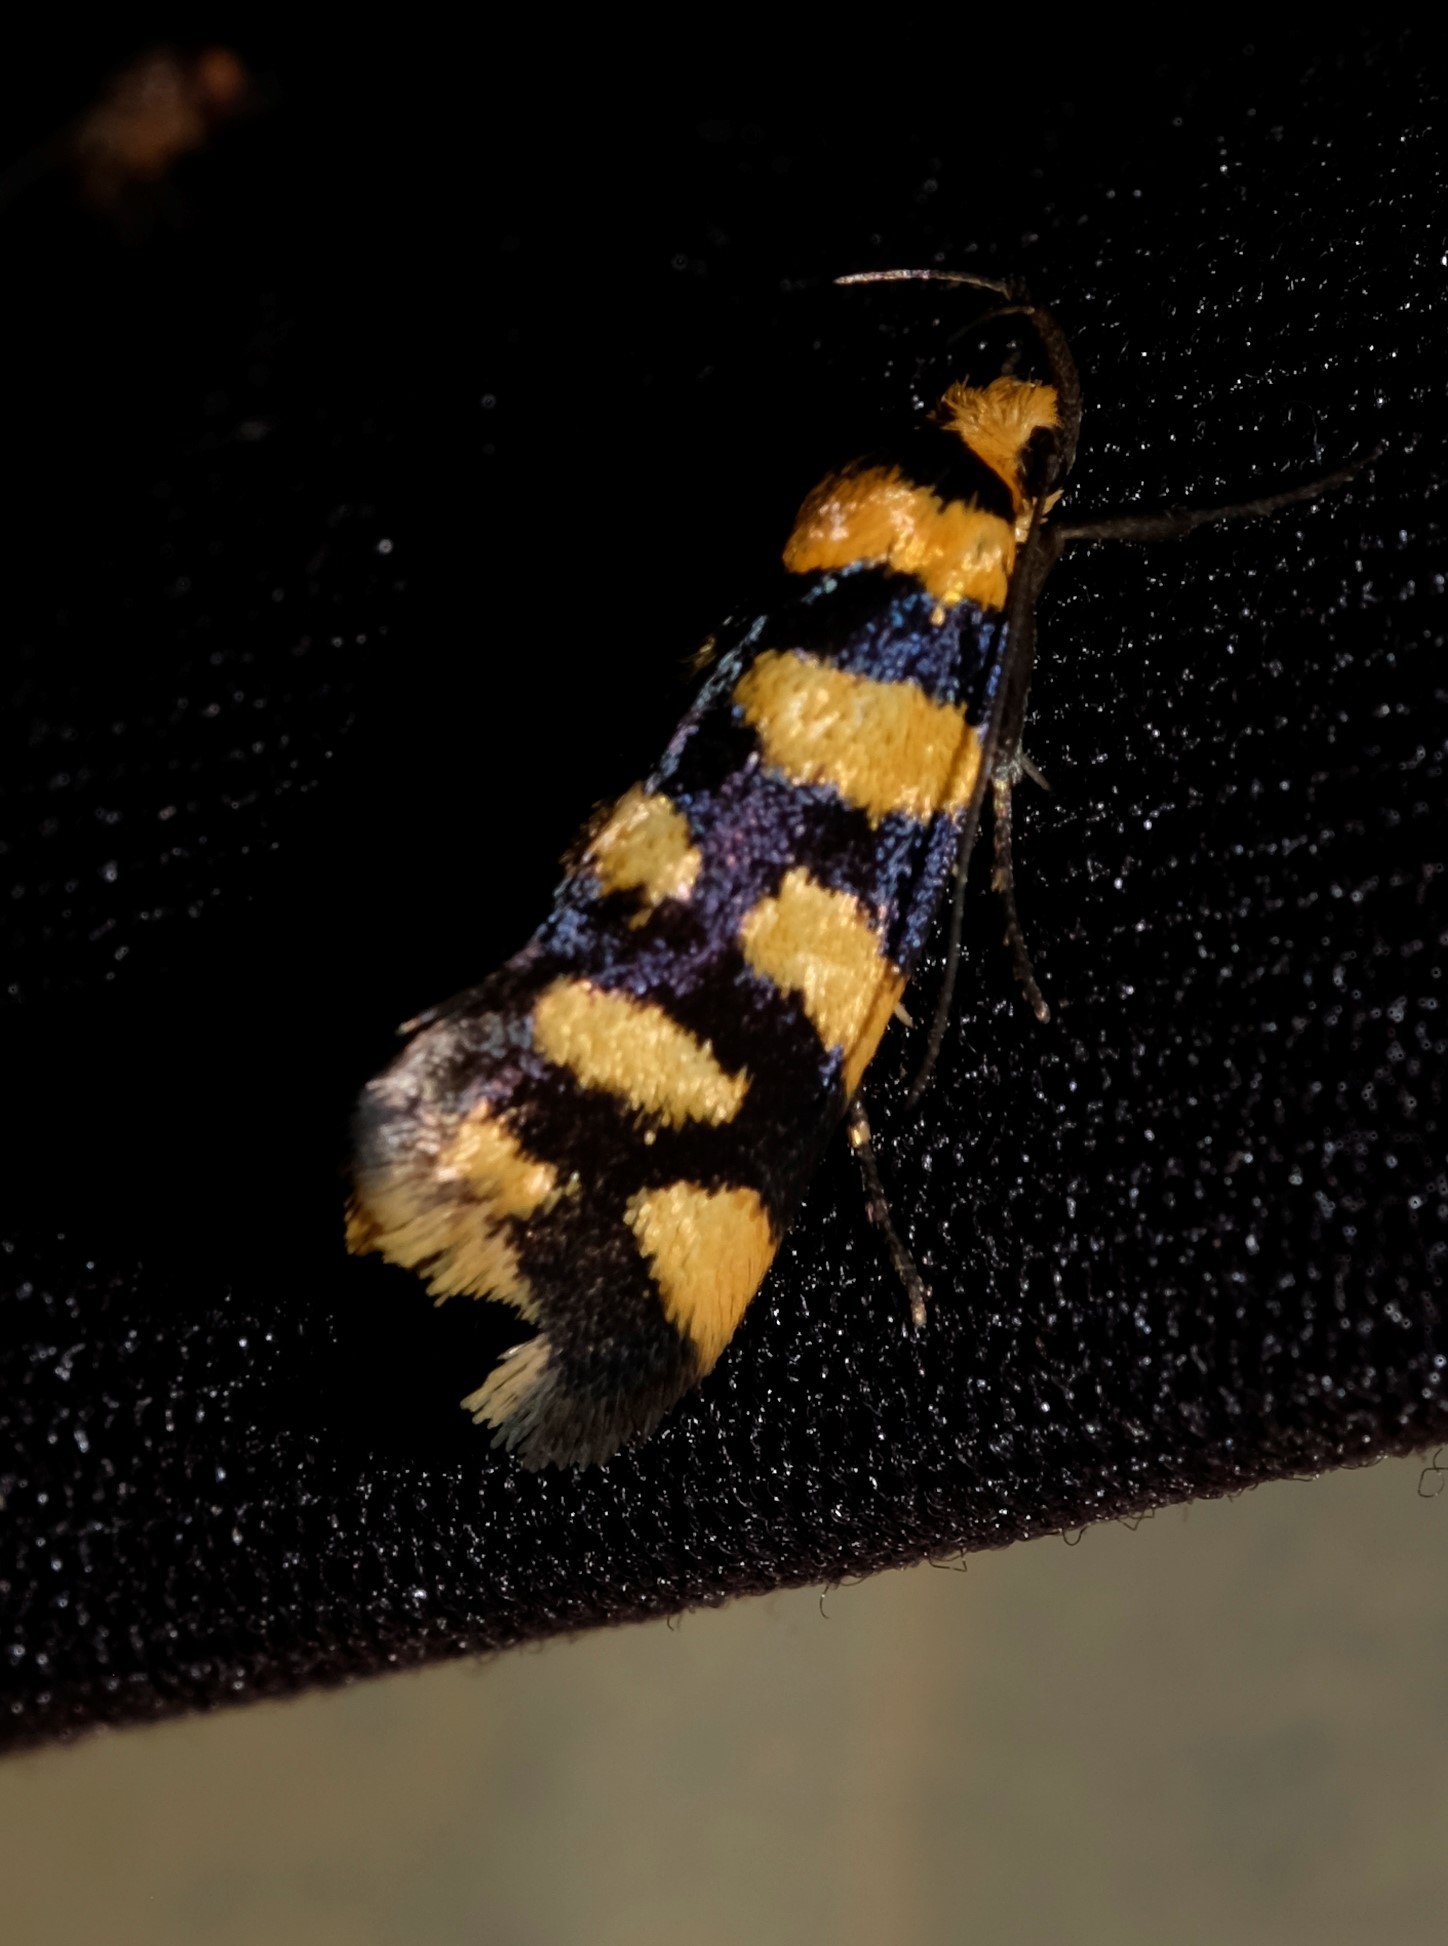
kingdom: Animalia
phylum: Arthropoda
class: Insecta
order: Lepidoptera
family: Oecophoridae
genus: Tanyzancla
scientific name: Tanyzancla argutella
